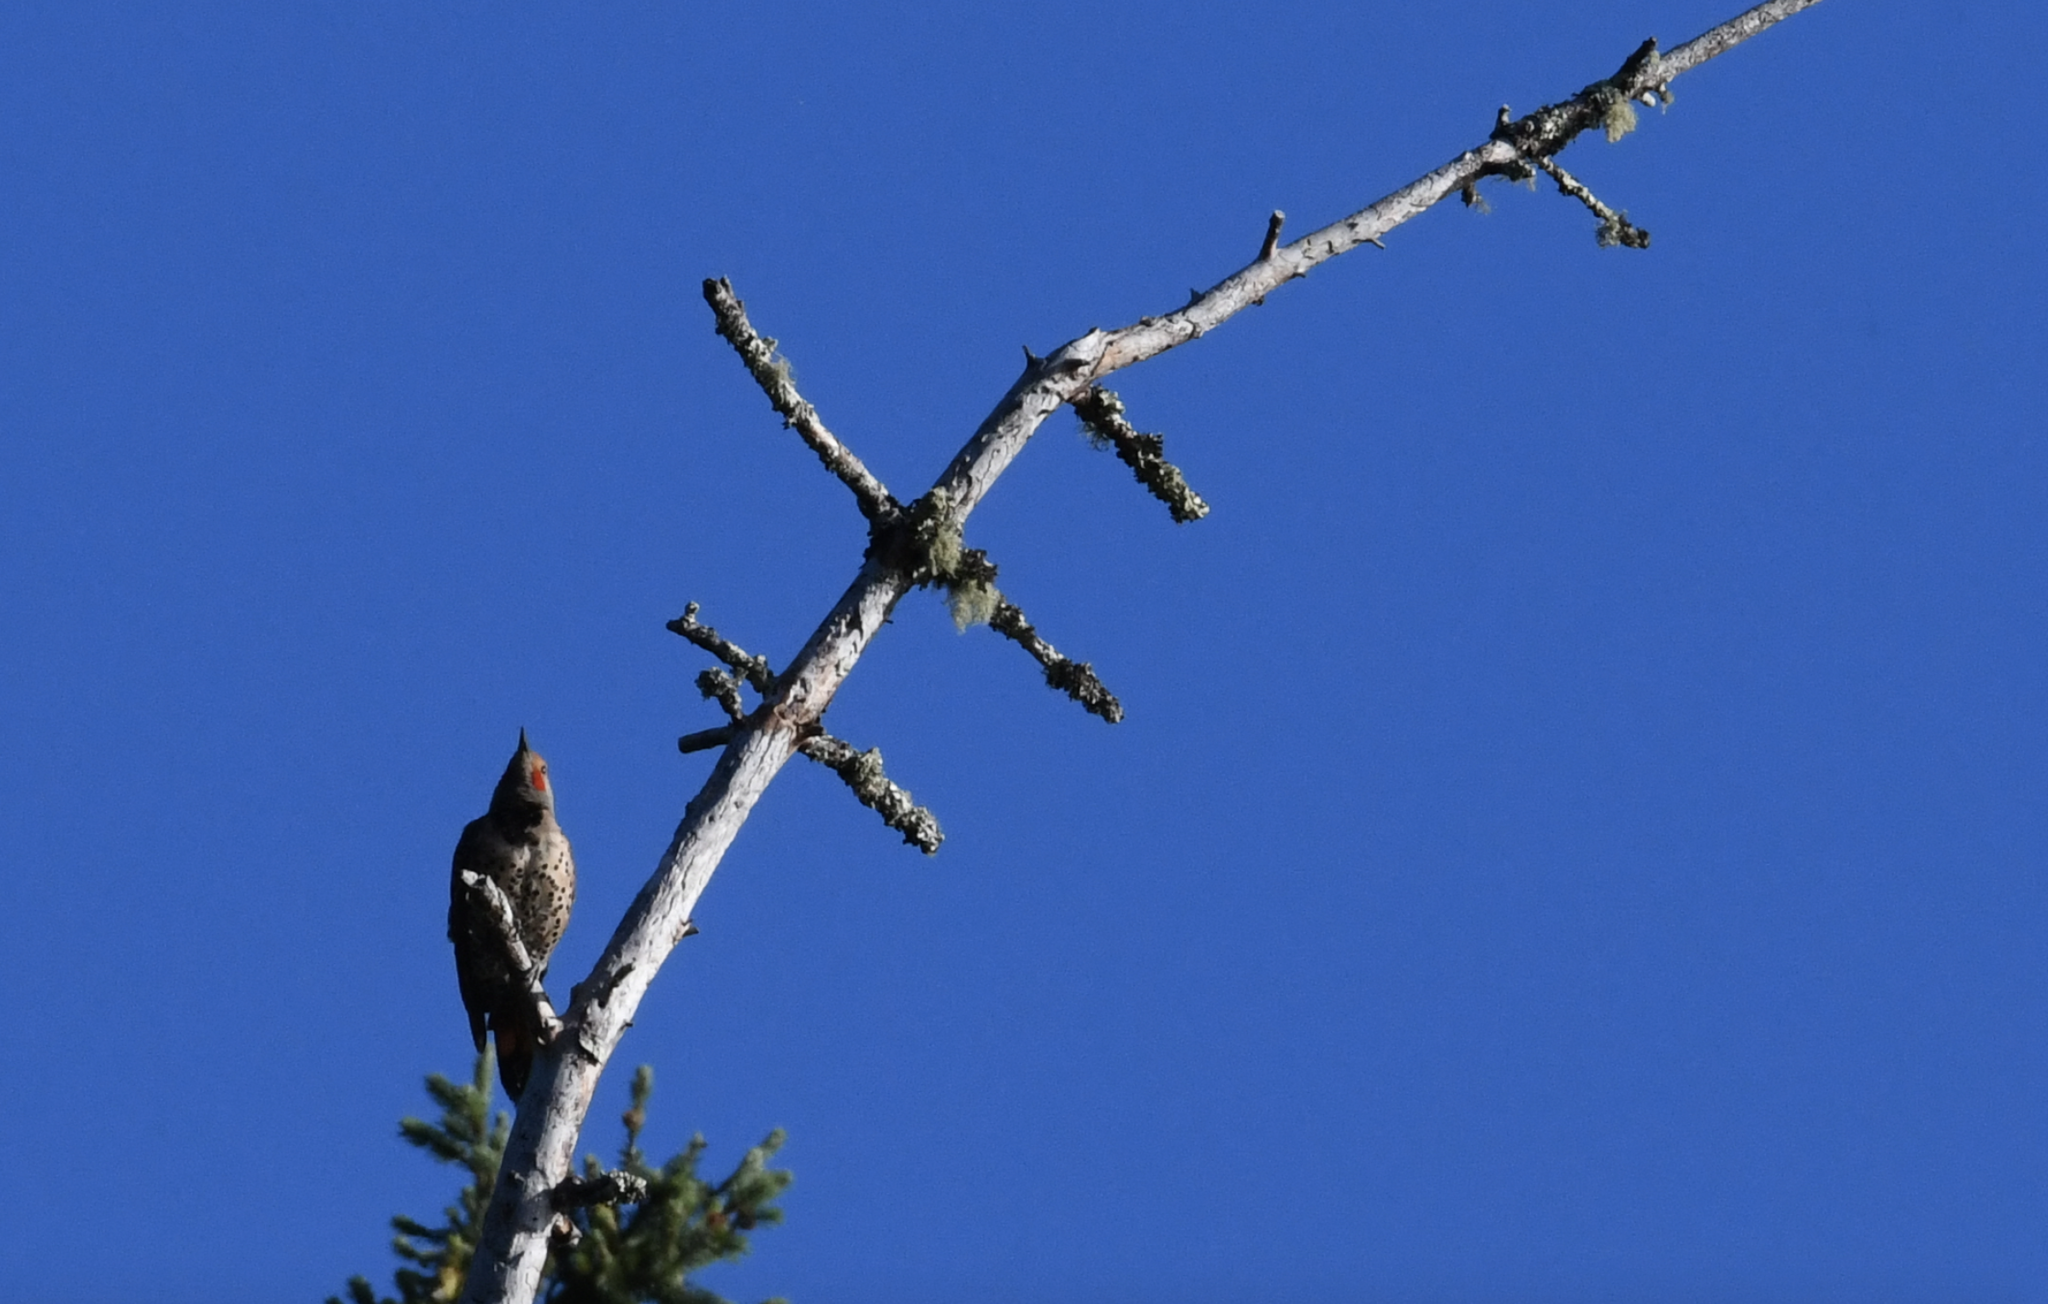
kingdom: Animalia
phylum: Chordata
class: Aves
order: Piciformes
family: Picidae
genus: Colaptes
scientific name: Colaptes auratus
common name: Northern flicker
